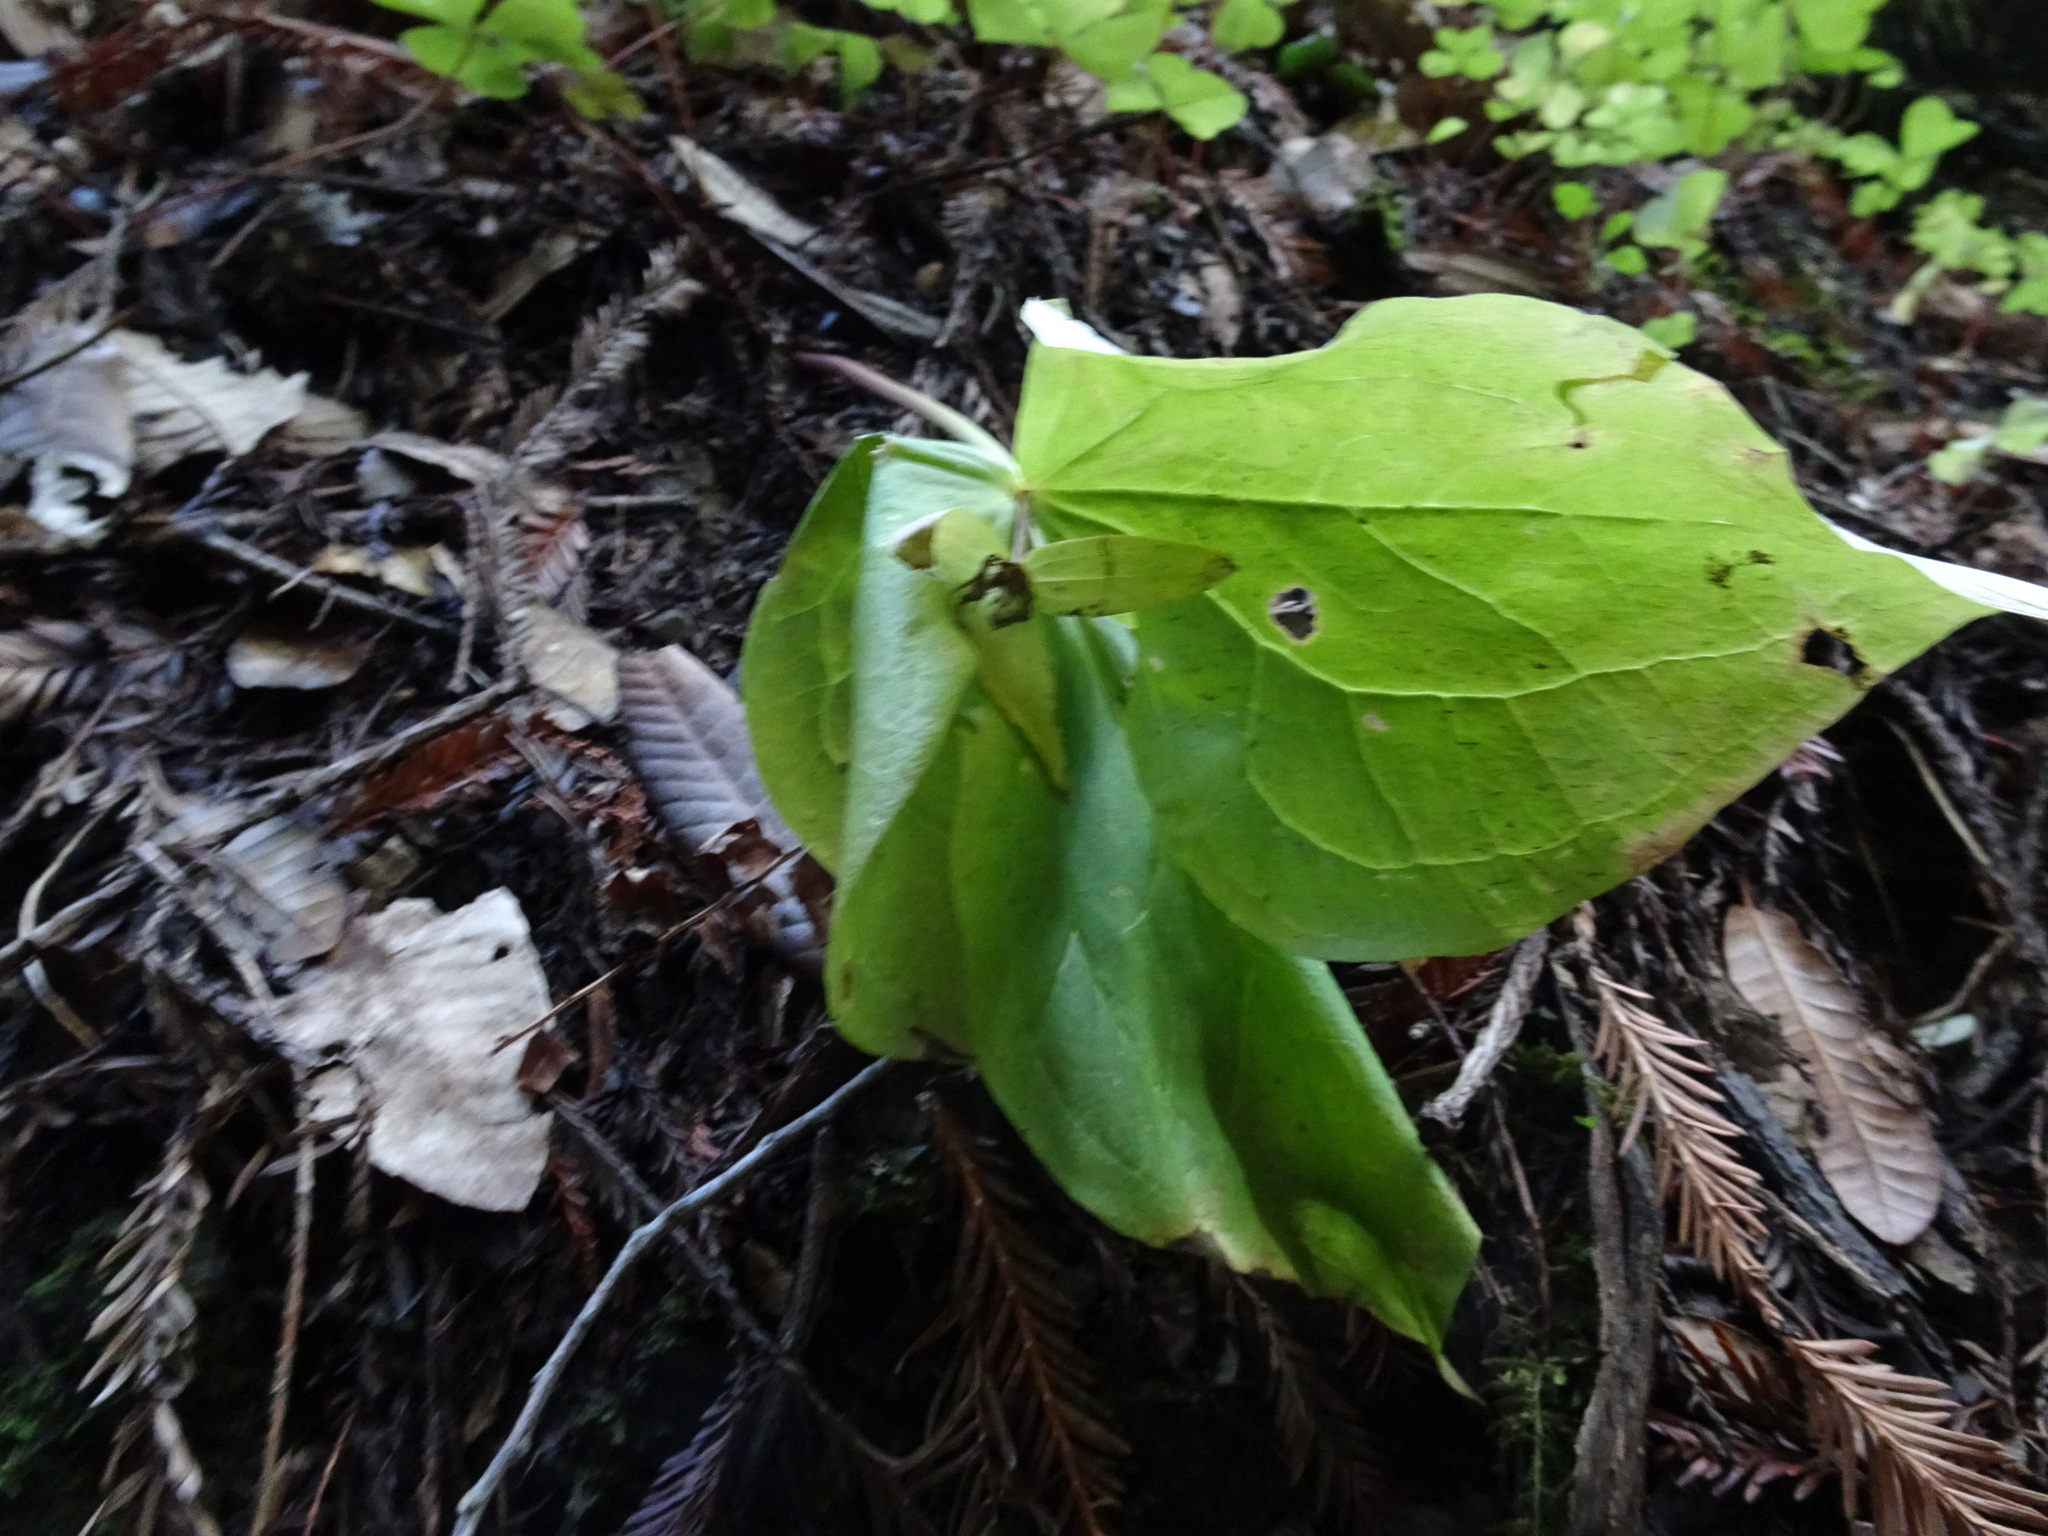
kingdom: Plantae
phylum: Tracheophyta
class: Liliopsida
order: Liliales
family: Melanthiaceae
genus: Trillium
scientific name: Trillium ovatum
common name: Pacific trillium
